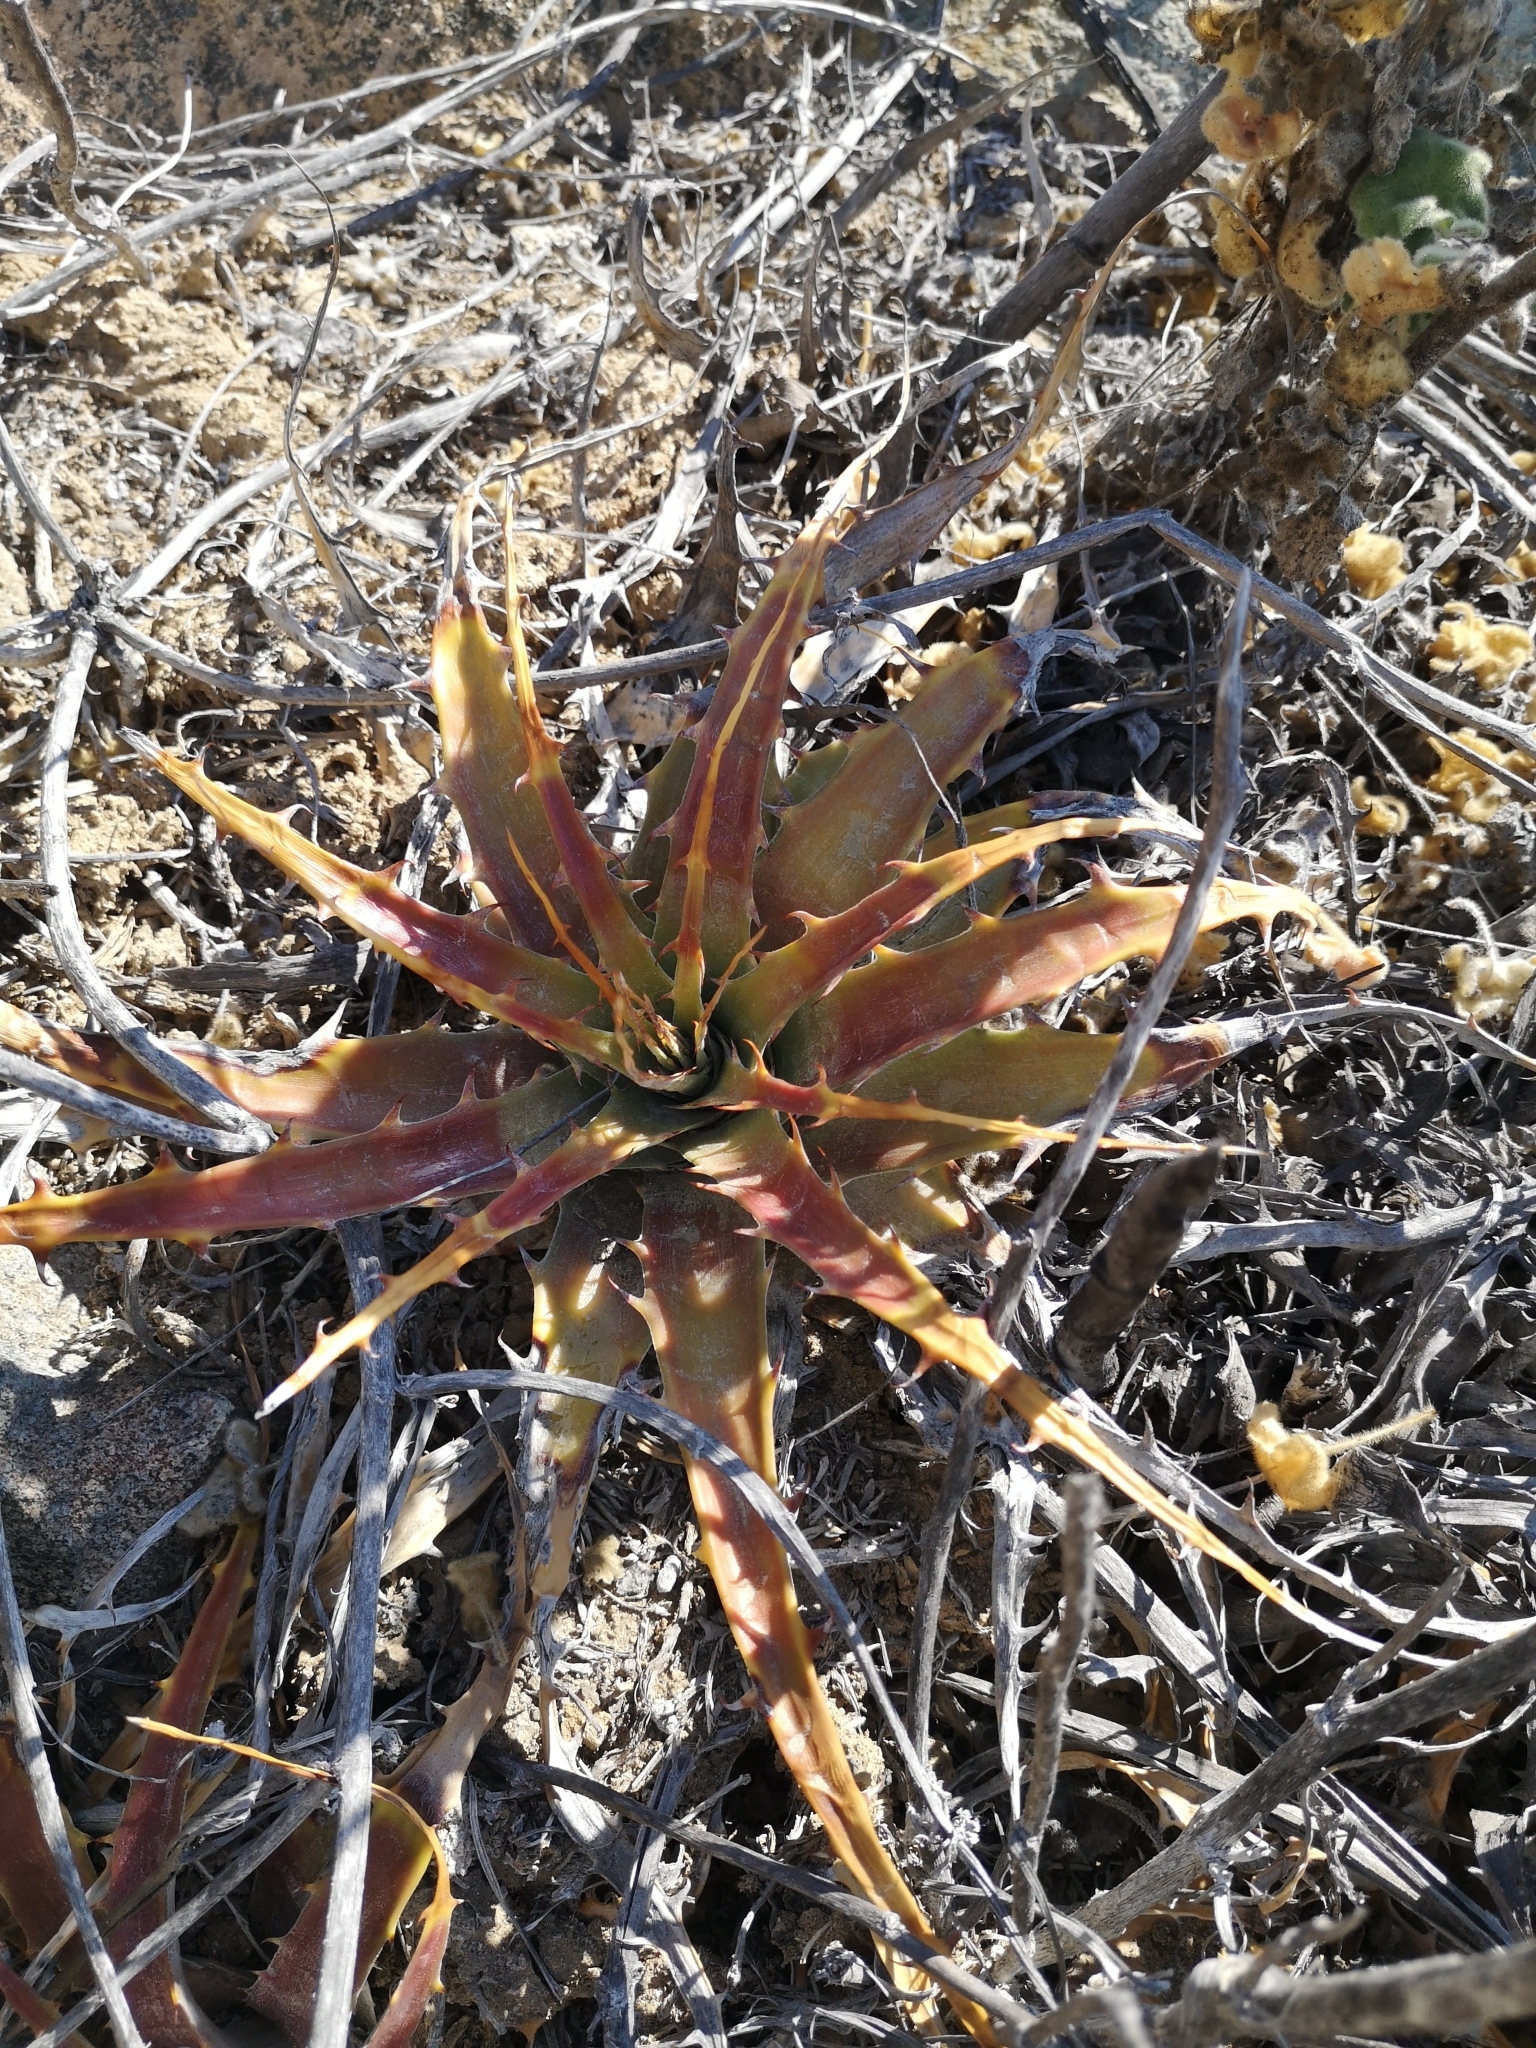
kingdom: Plantae
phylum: Tracheophyta
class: Liliopsida
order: Poales
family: Bromeliaceae
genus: Deuterocohnia
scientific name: Deuterocohnia chrysantha
